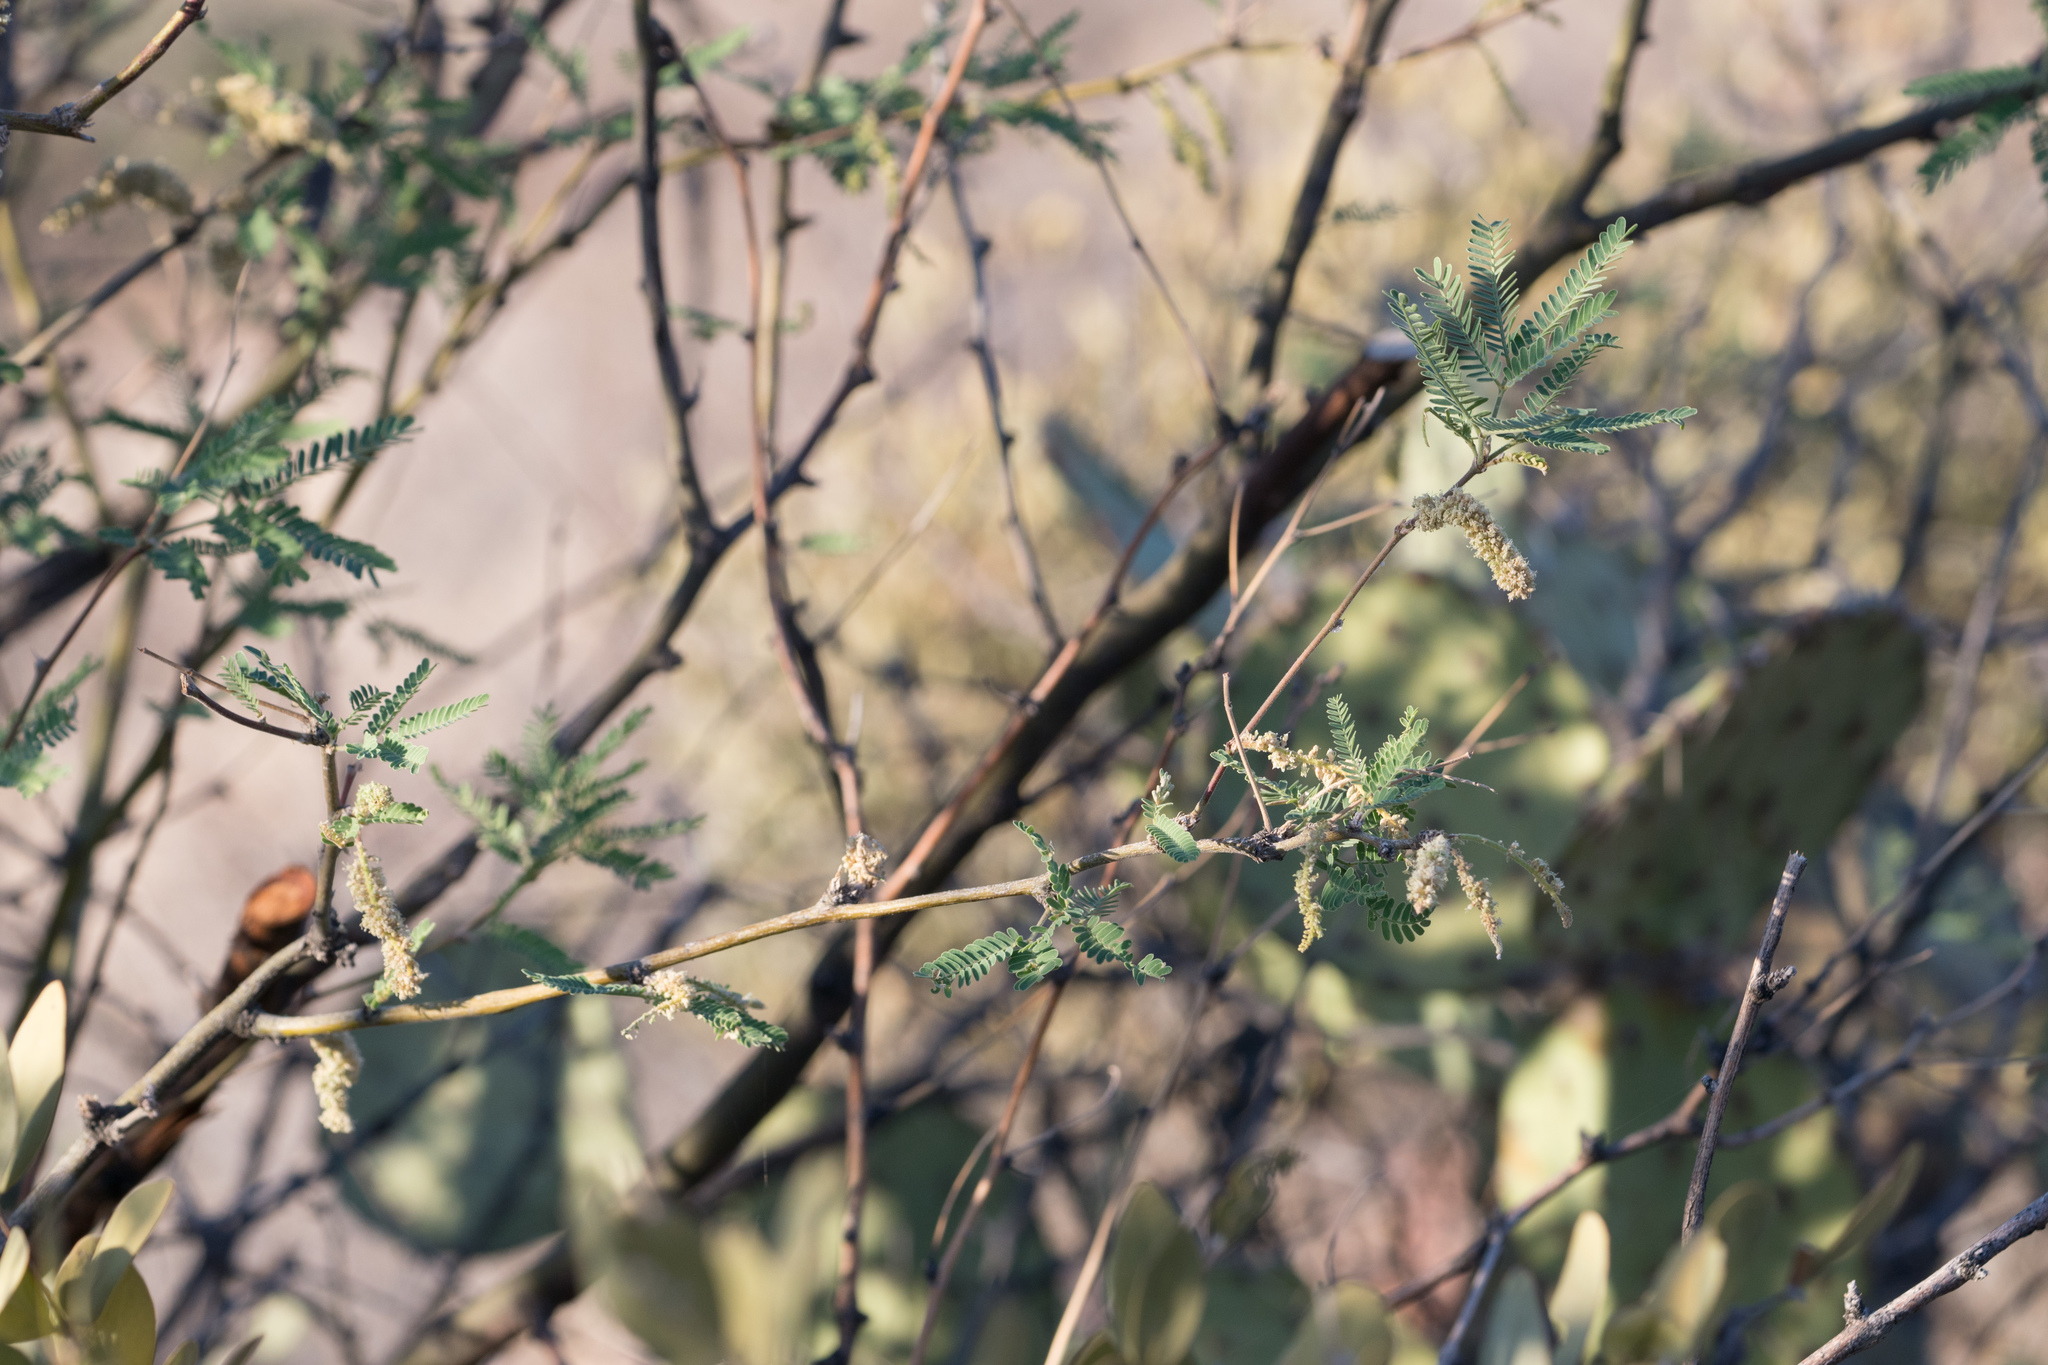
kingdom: Plantae
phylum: Tracheophyta
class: Magnoliopsida
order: Fabales
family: Fabaceae
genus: Prosopis
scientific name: Prosopis velutina
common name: Velvet mesquite
